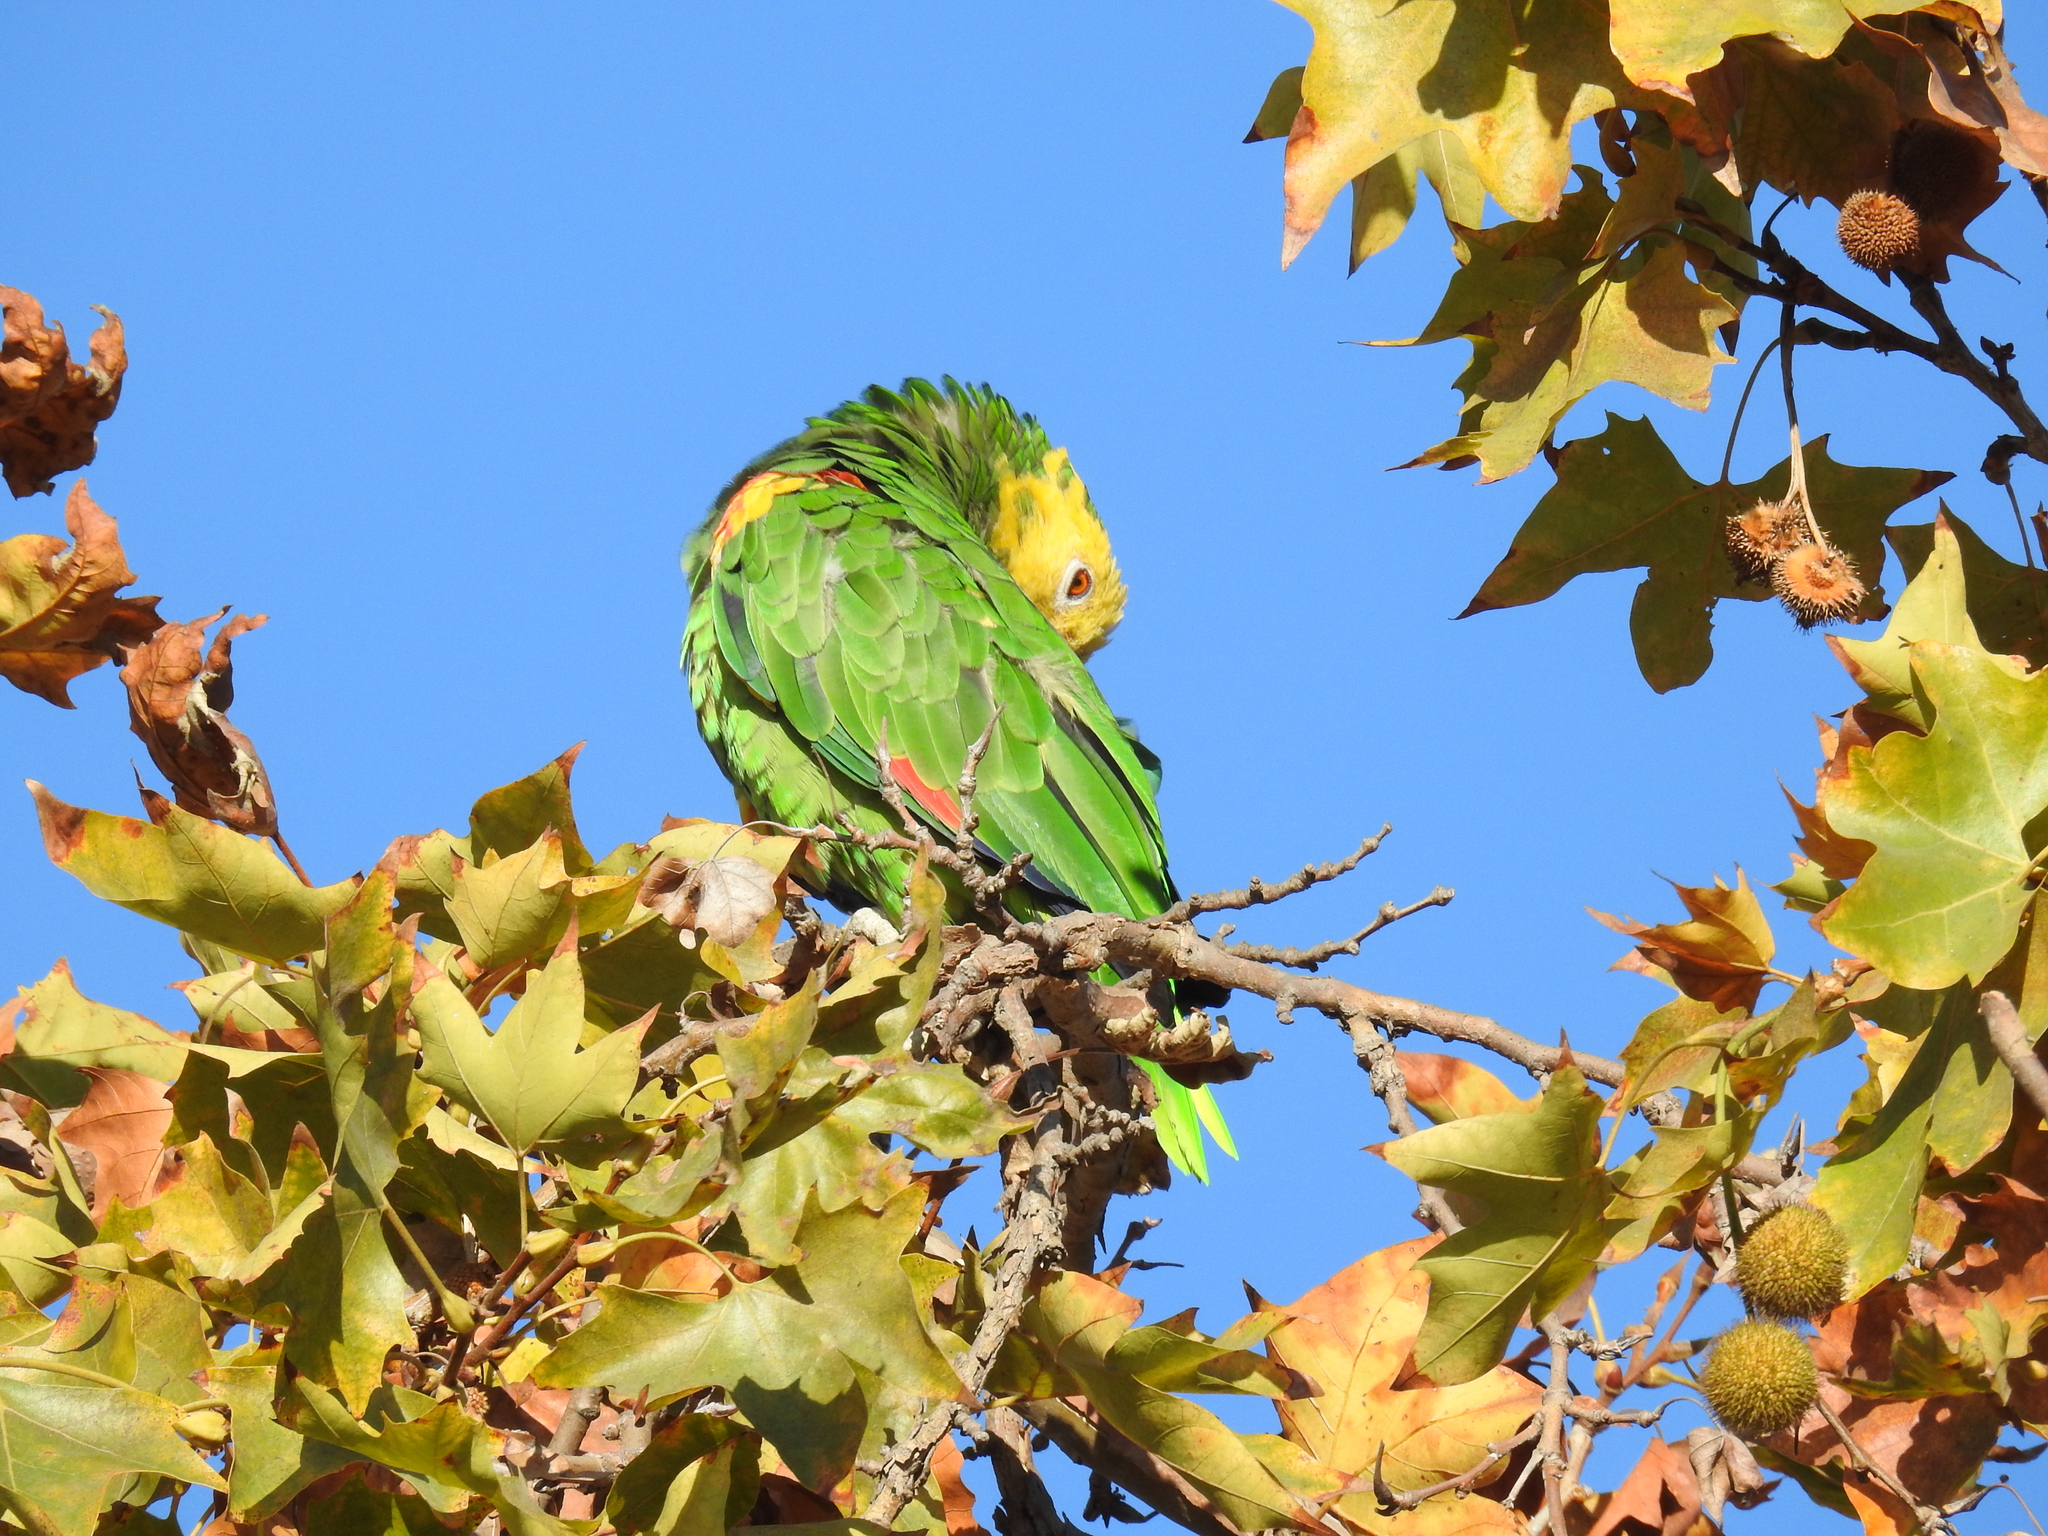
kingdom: Animalia
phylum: Chordata
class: Aves
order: Psittaciformes
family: Psittacidae
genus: Amazona
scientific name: Amazona oratrix
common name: Yellow-headed amazon
